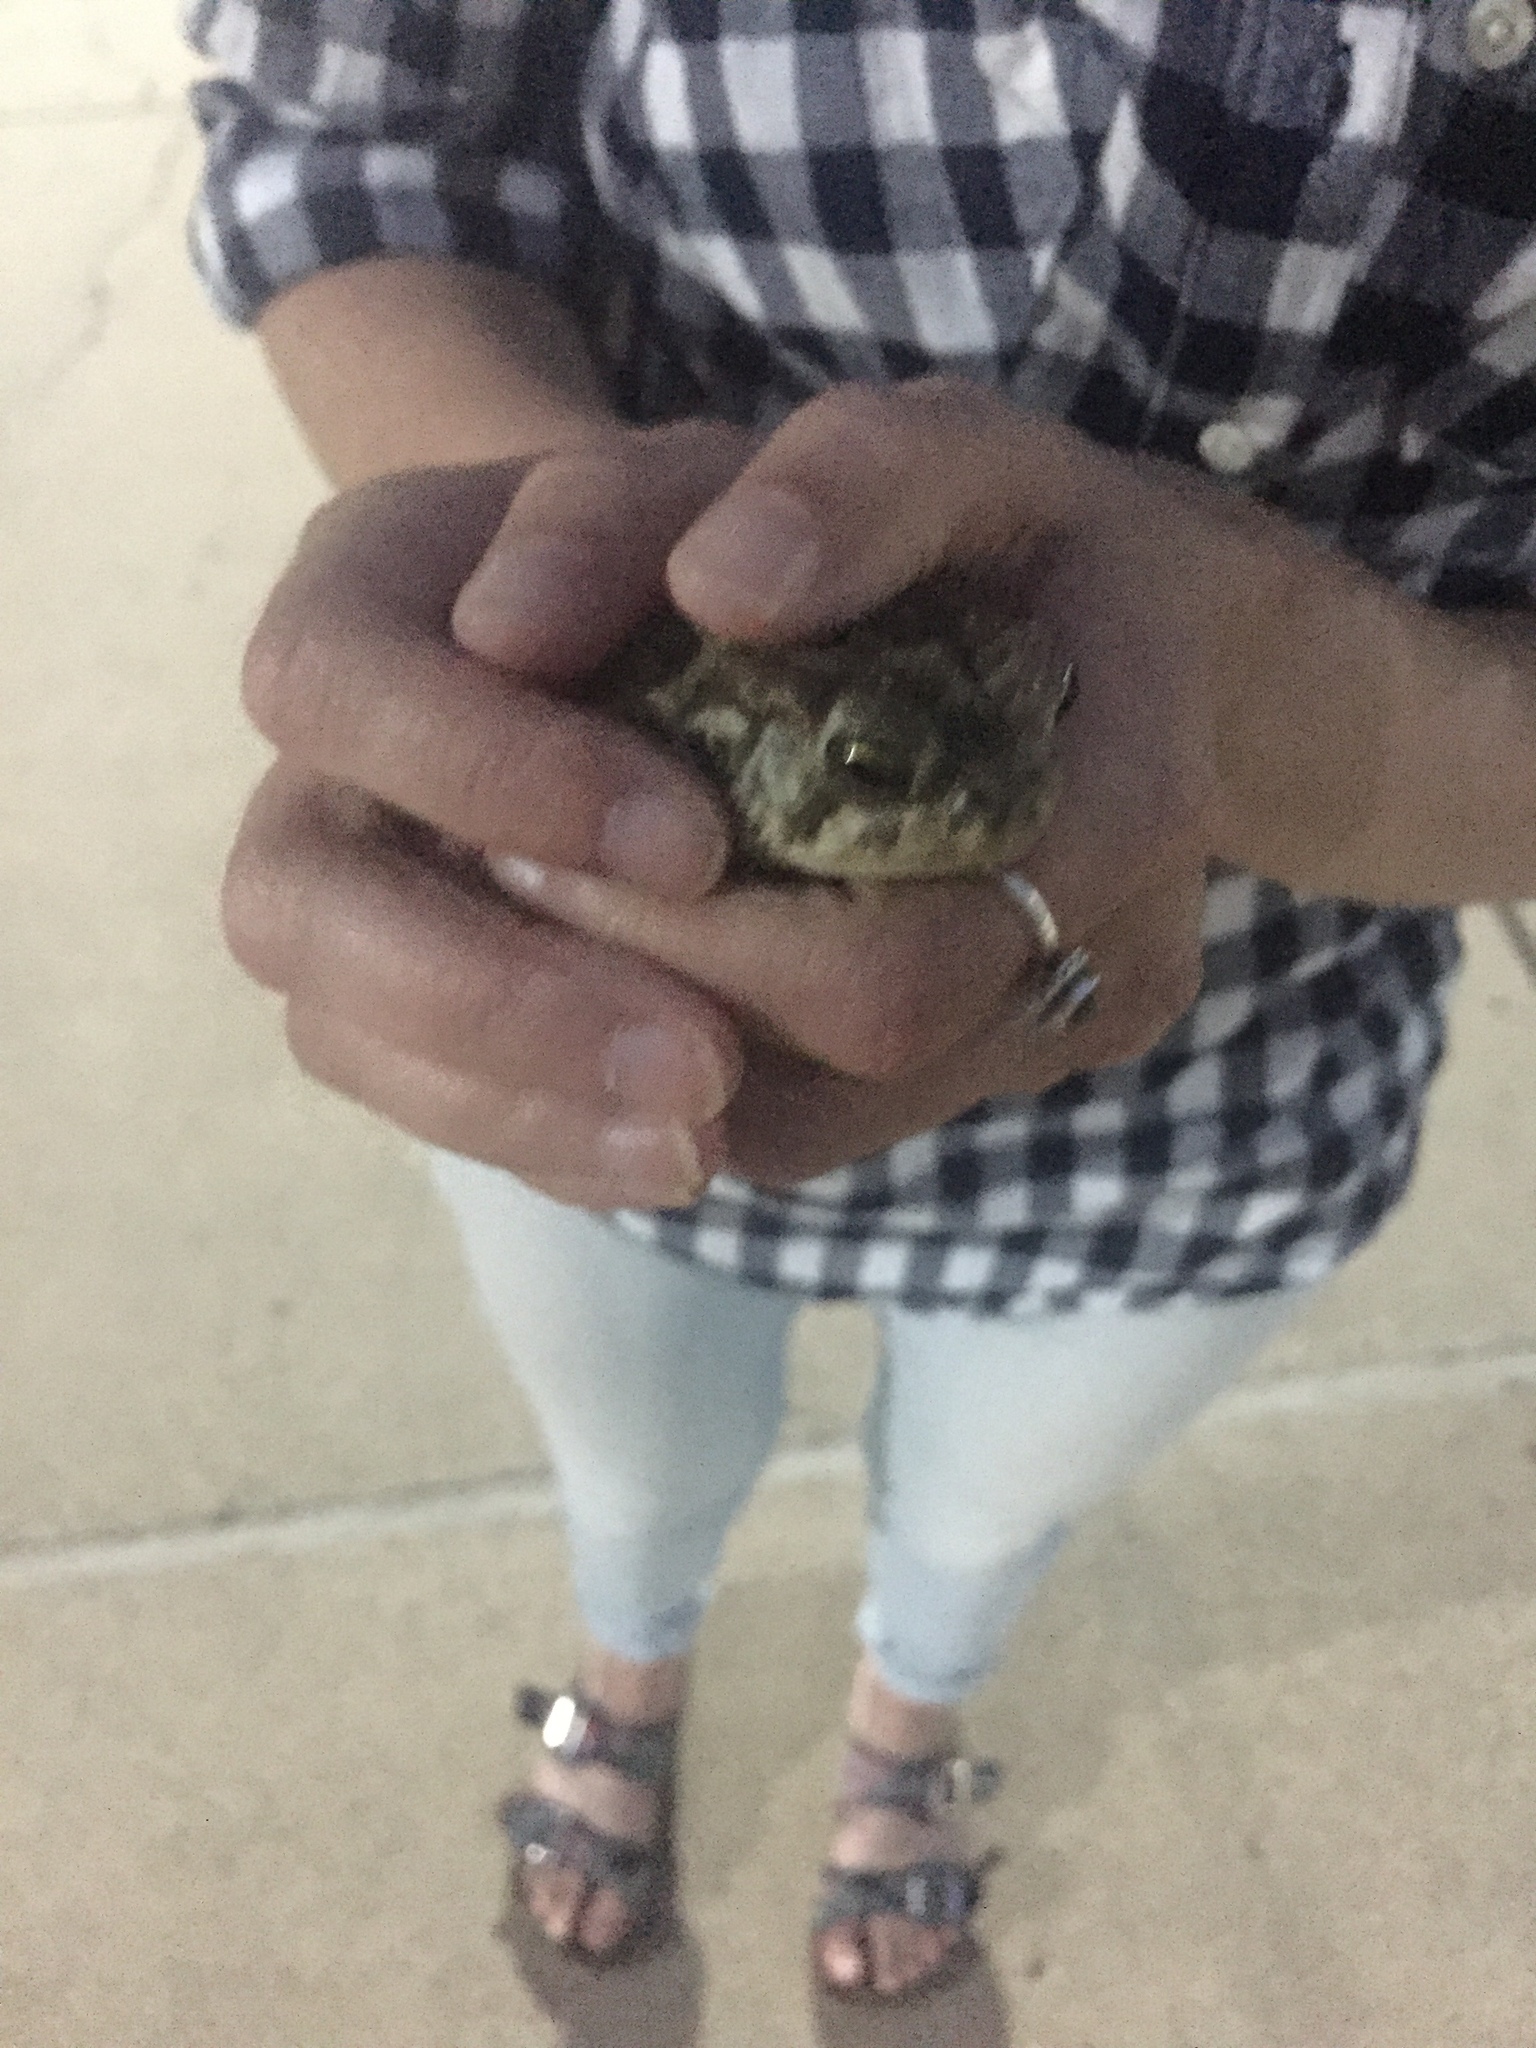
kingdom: Animalia
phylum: Chordata
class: Amphibia
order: Anura
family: Bufonidae
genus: Incilius
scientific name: Incilius nebulifer
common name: Gulf coast toad
